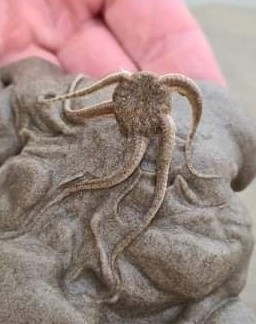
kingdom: Animalia
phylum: Echinodermata
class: Ophiuroidea
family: Ophiuridae
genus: Ophiura
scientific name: Ophiura ophiura
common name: Serpent star
